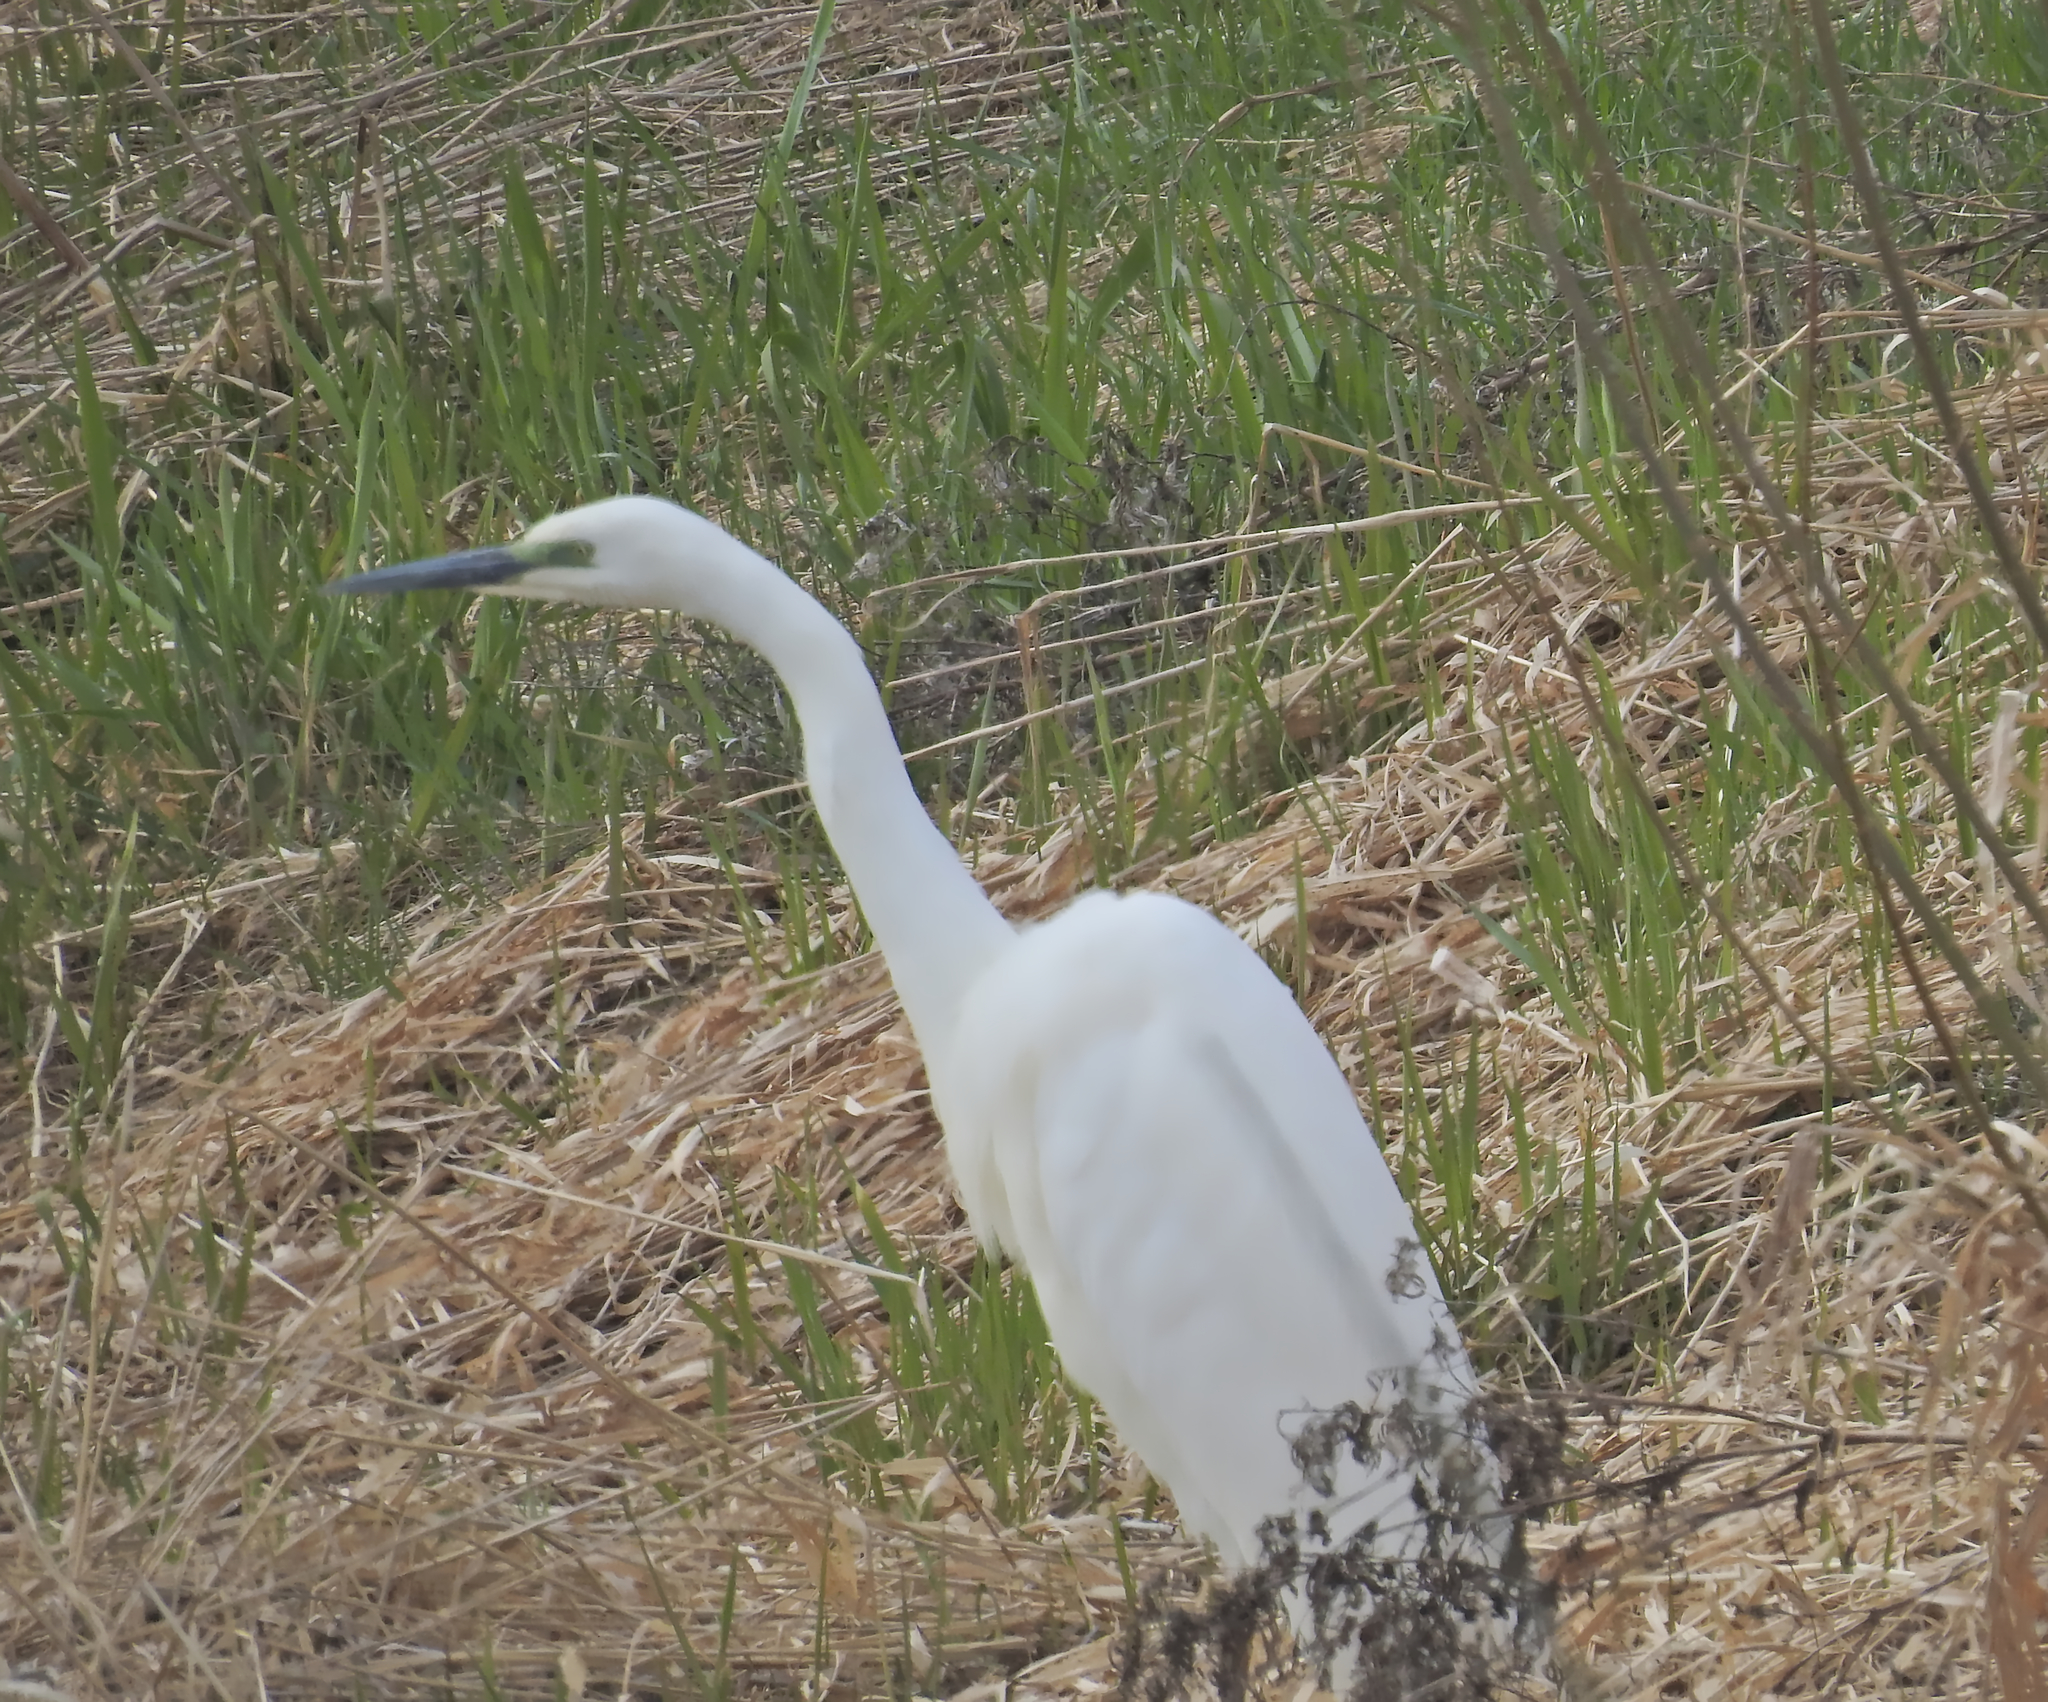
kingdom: Animalia
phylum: Chordata
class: Aves
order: Pelecaniformes
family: Ardeidae
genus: Ardea
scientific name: Ardea alba
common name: Great egret
